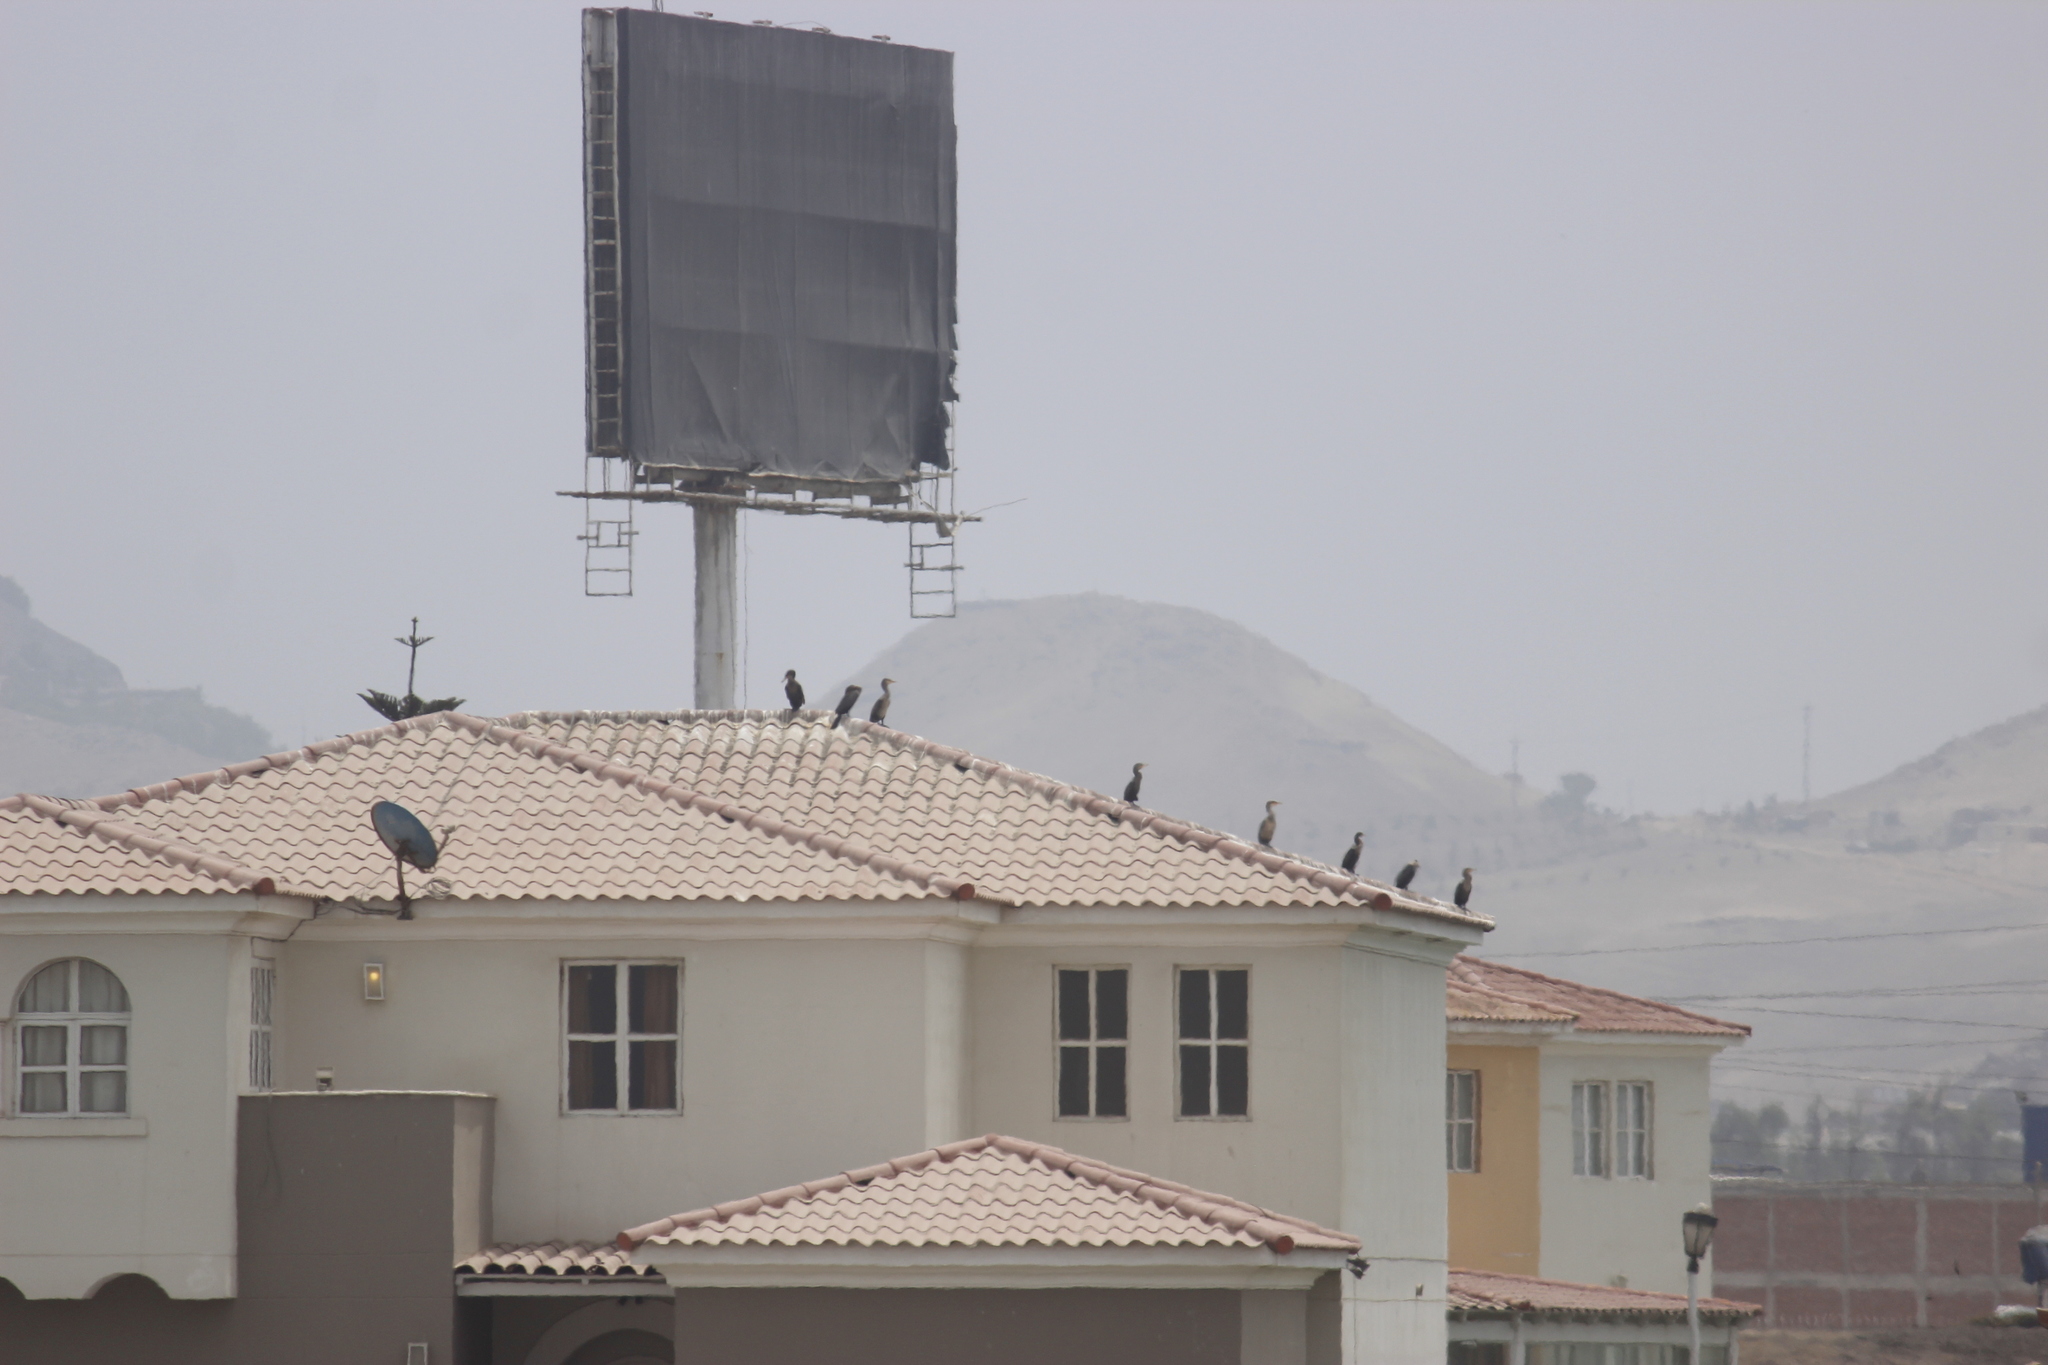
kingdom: Animalia
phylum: Chordata
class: Aves
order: Suliformes
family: Phalacrocoracidae
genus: Phalacrocorax
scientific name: Phalacrocorax brasilianus
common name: Neotropic cormorant
